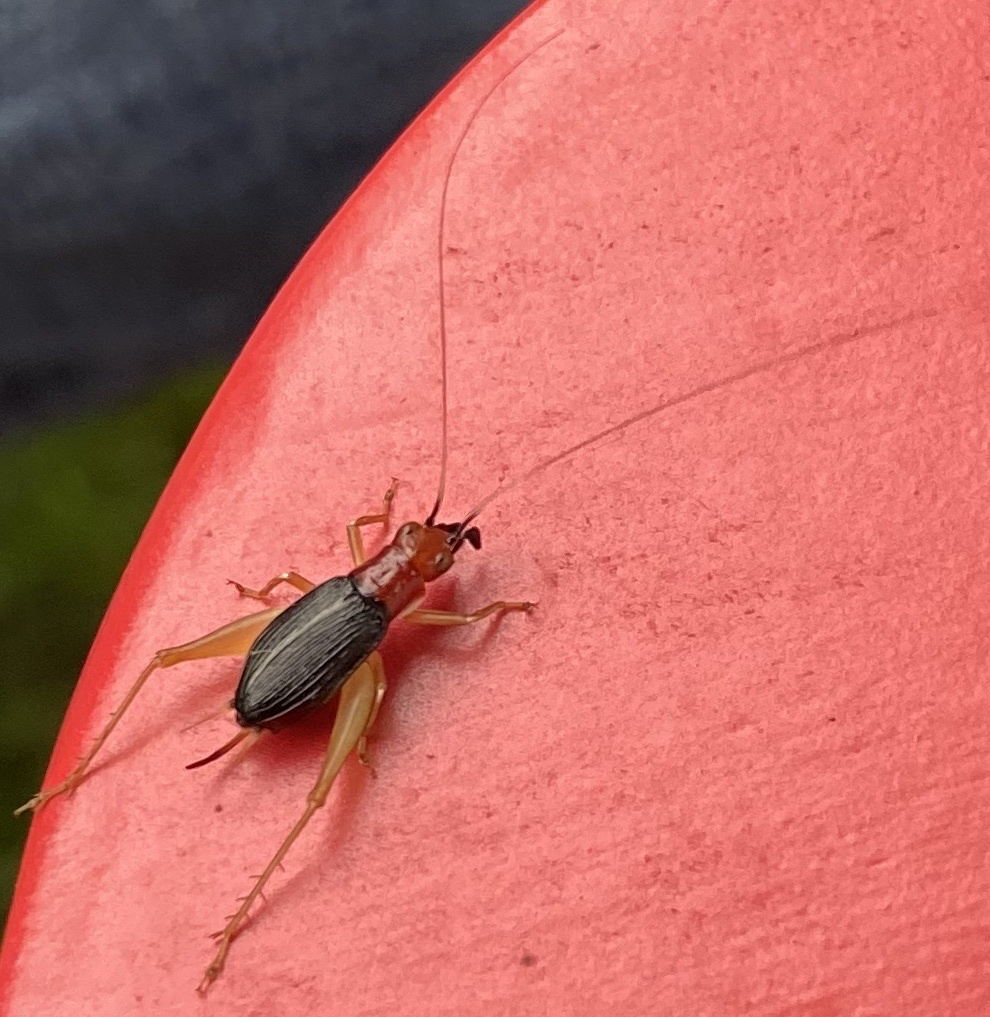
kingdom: Animalia
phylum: Arthropoda
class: Insecta
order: Orthoptera
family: Trigonidiidae
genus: Phyllopalpus
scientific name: Phyllopalpus pulchellus
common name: Handsome trig
